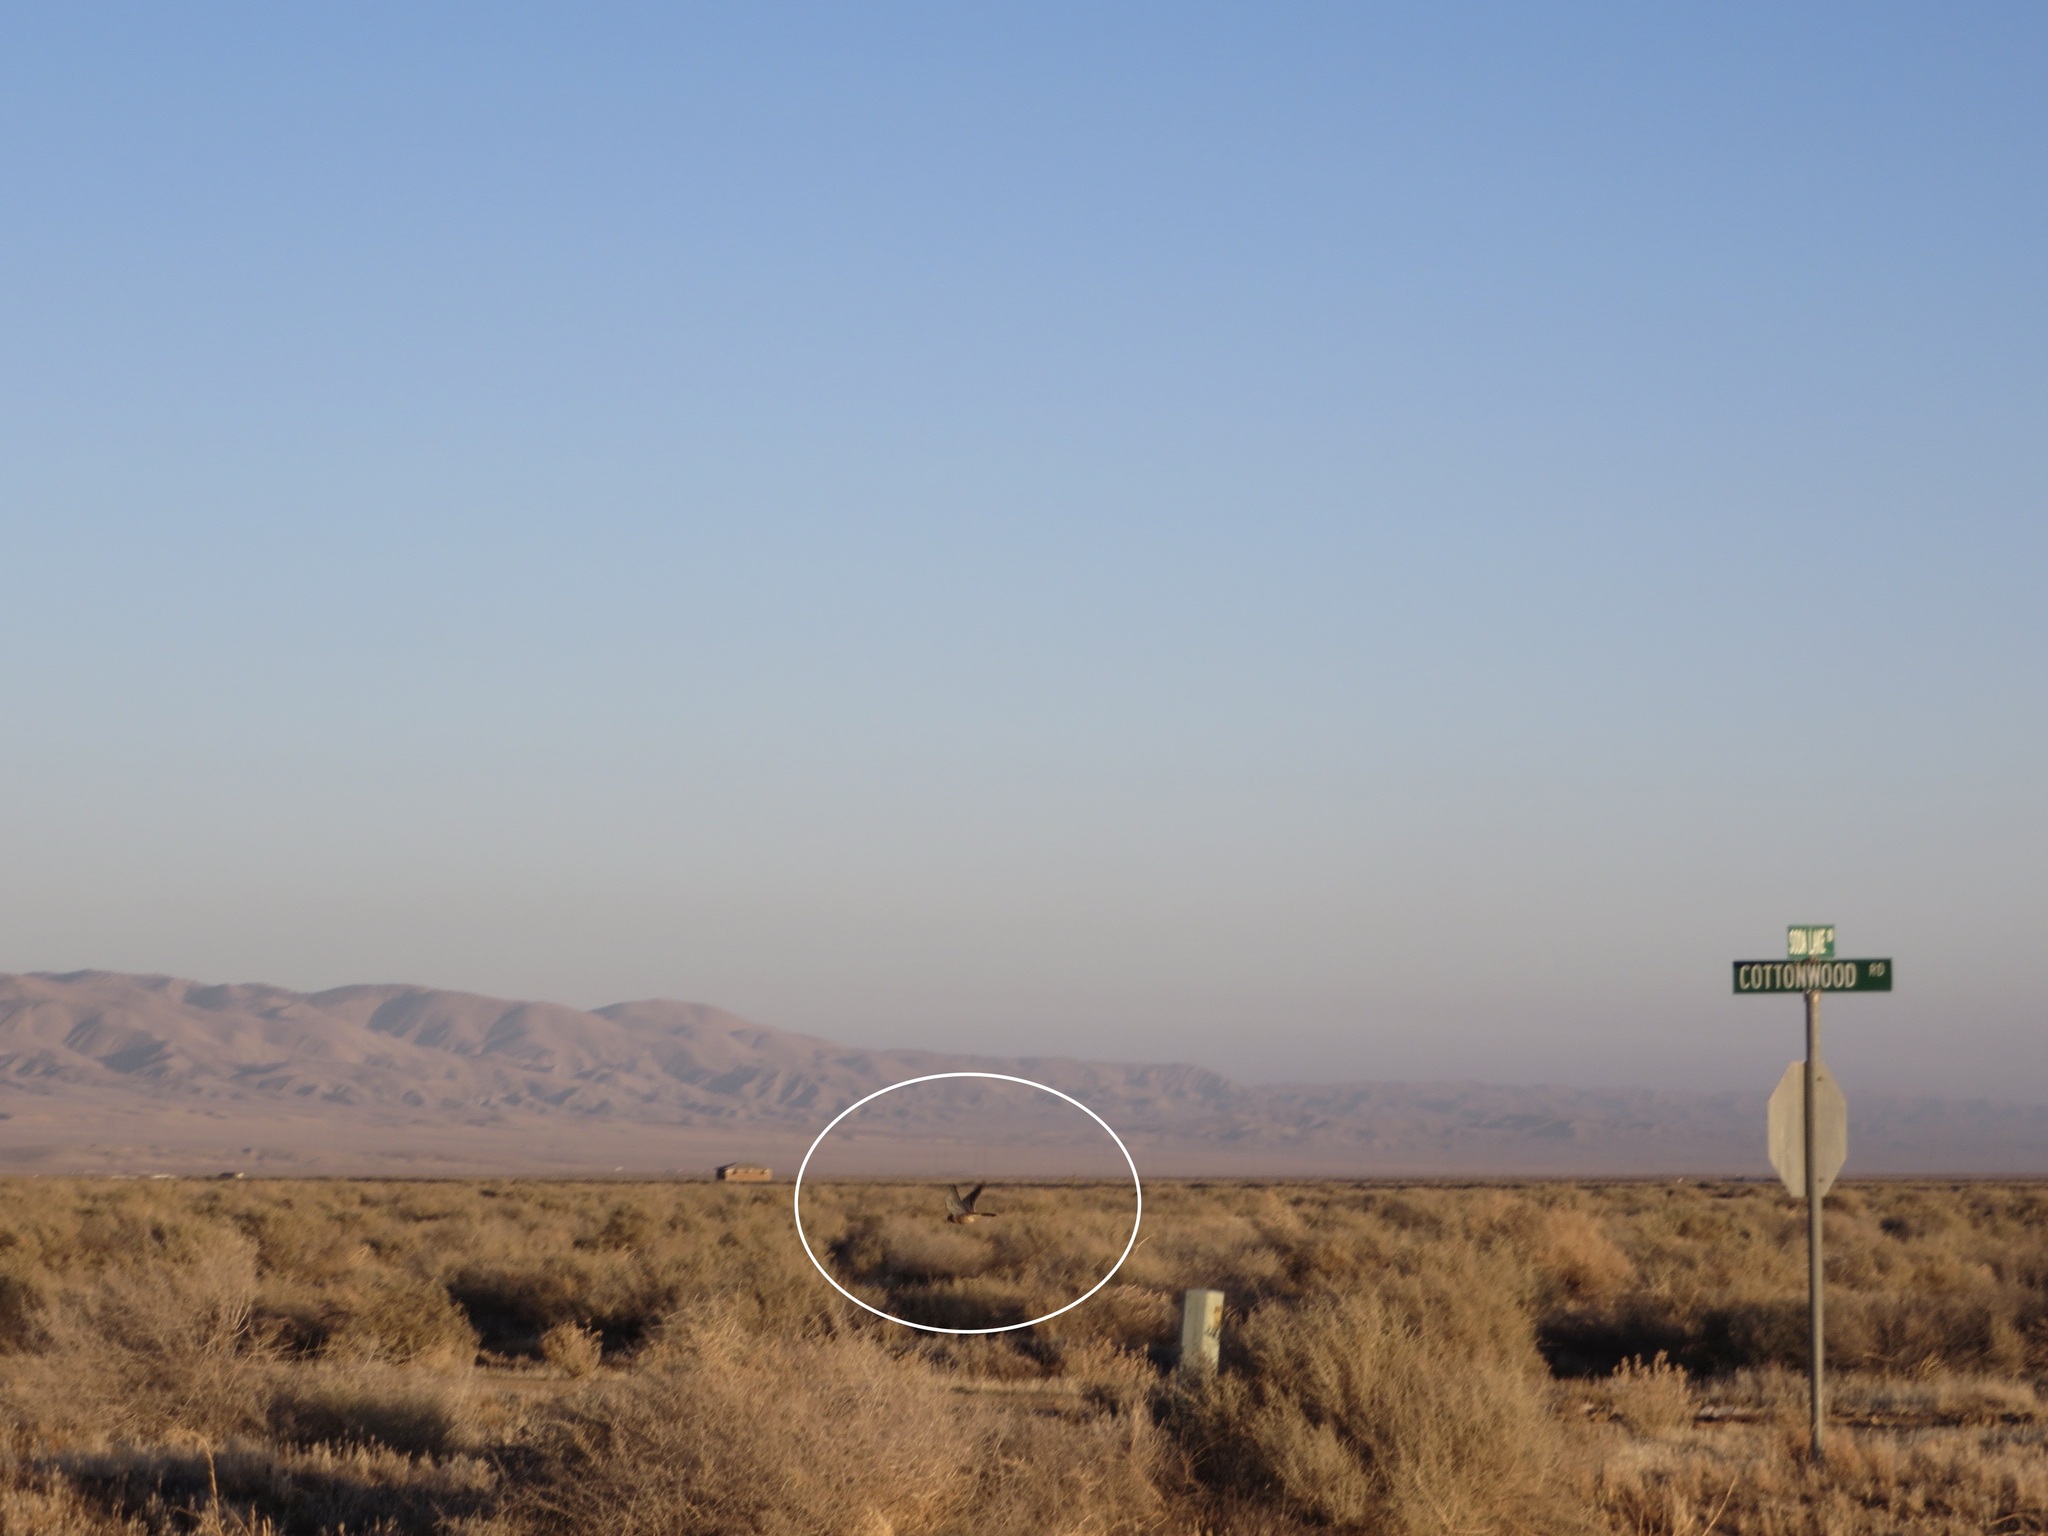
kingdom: Animalia
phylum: Chordata
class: Aves
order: Falconiformes
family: Falconidae
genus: Falco
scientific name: Falco sparverius
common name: American kestrel
